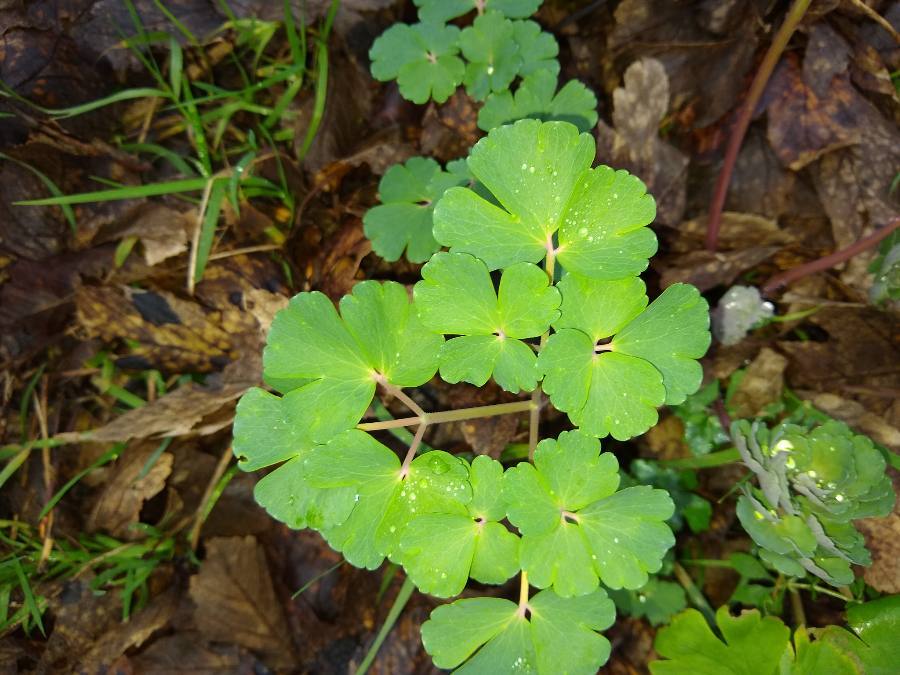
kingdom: Plantae
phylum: Tracheophyta
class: Magnoliopsida
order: Ranunculales
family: Ranunculaceae
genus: Aquilegia
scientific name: Aquilegia vulgaris
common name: Columbine
